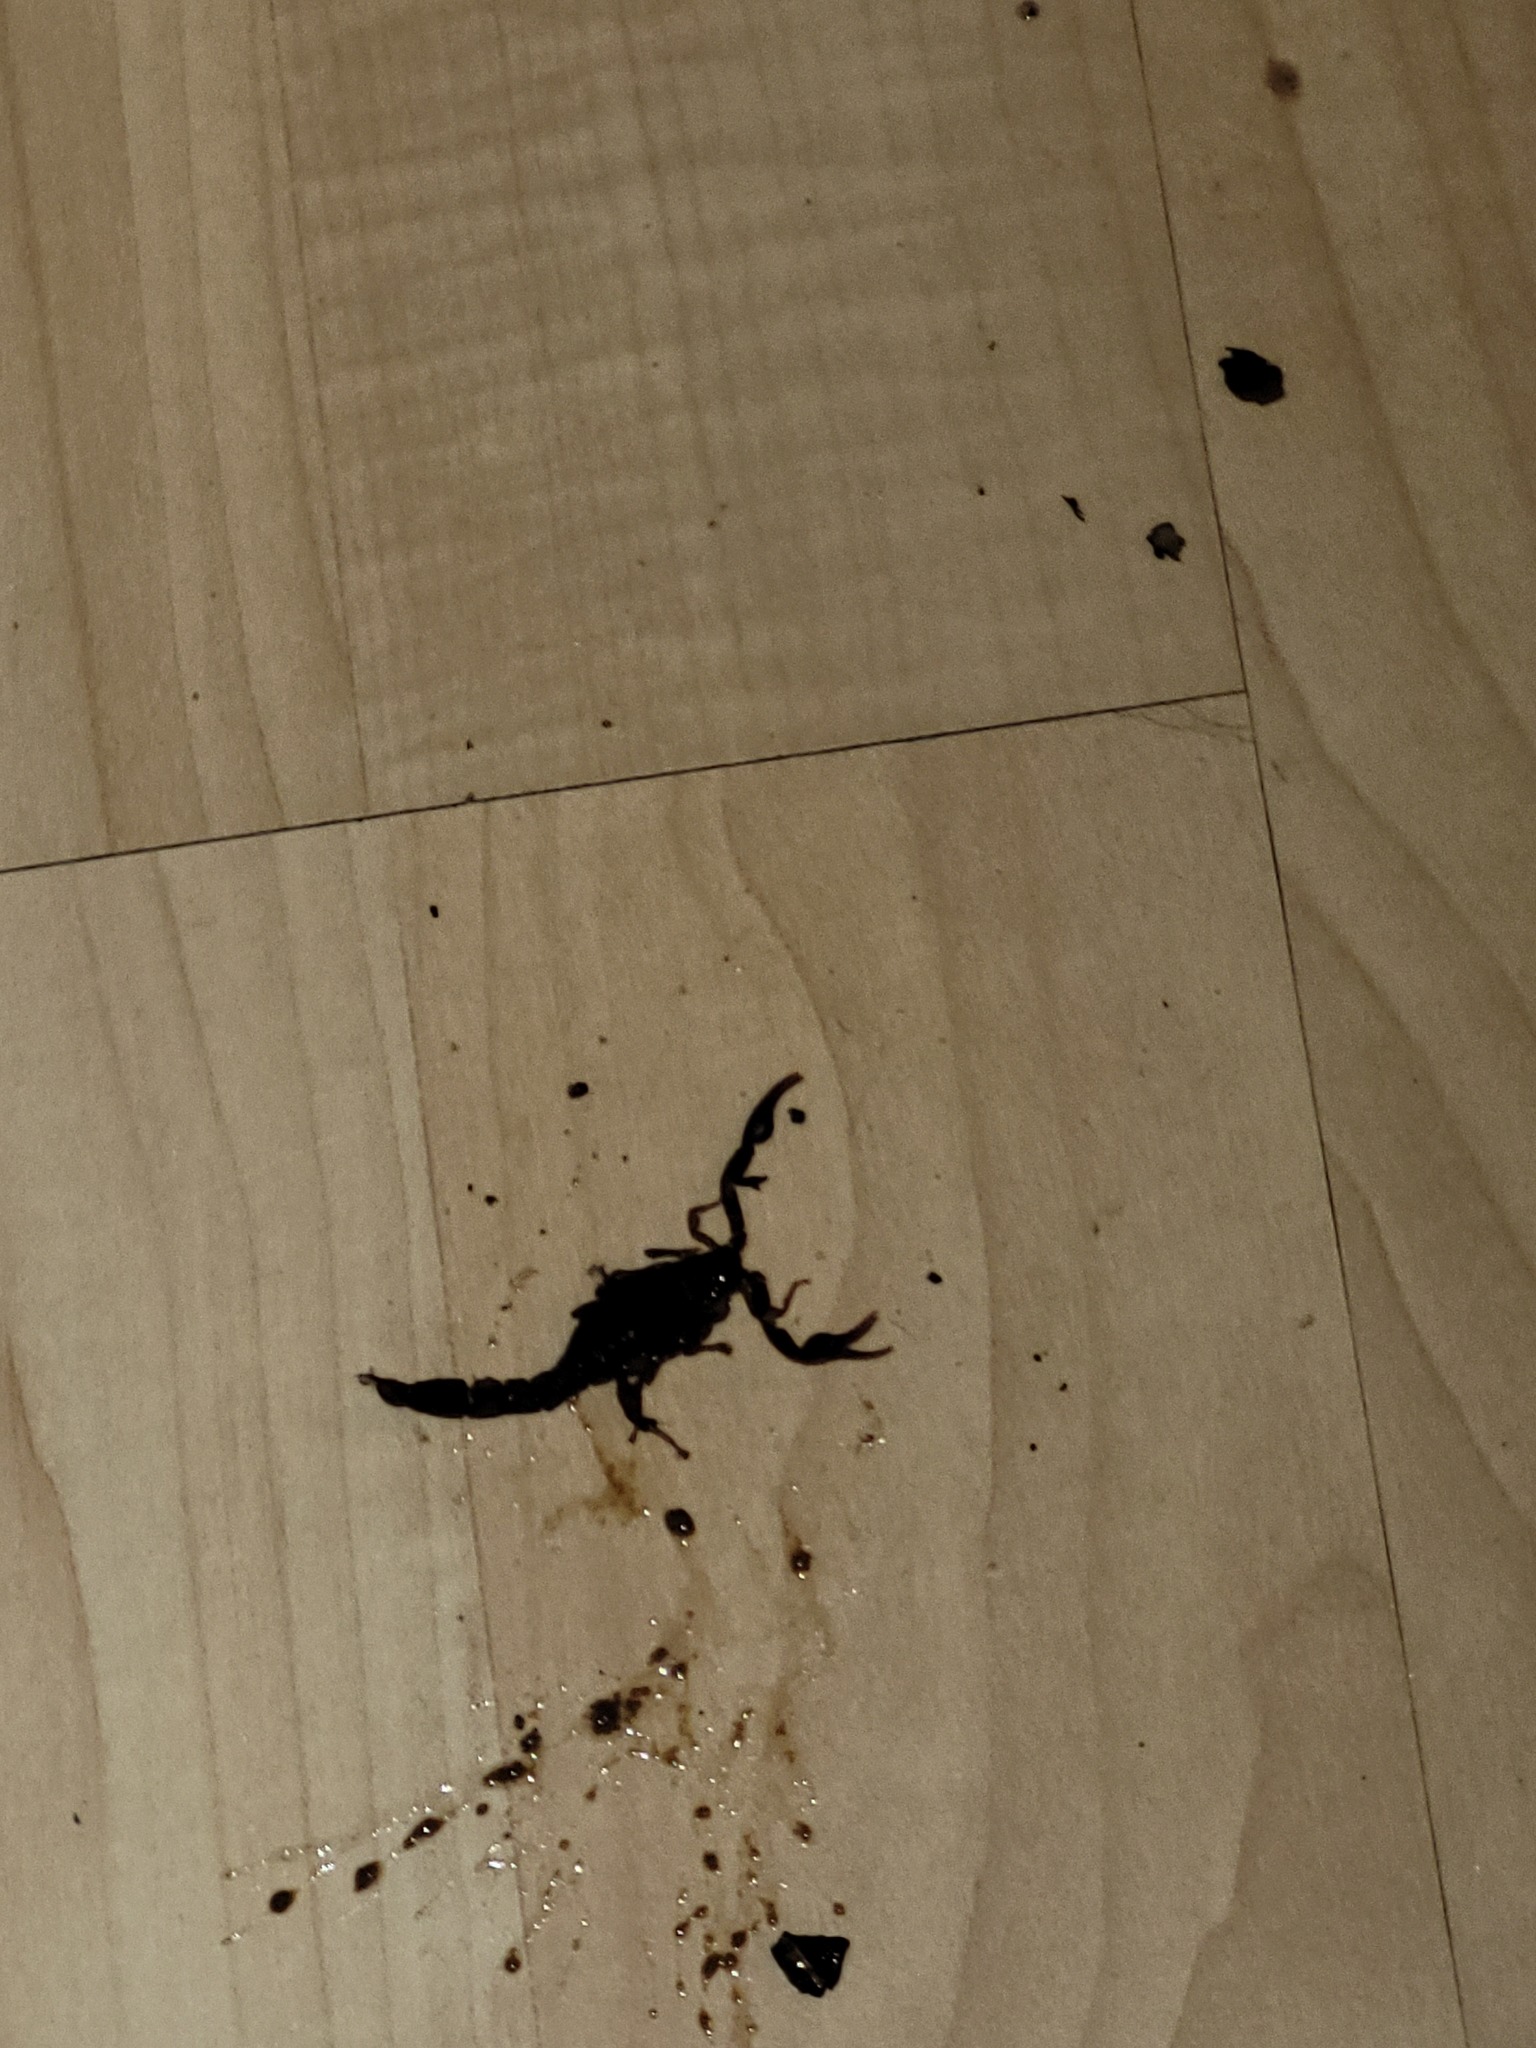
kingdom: Animalia
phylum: Arthropoda
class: Arachnida
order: Scorpiones
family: Vaejovidae
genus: Vaejovis
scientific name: Vaejovis carolinianus
